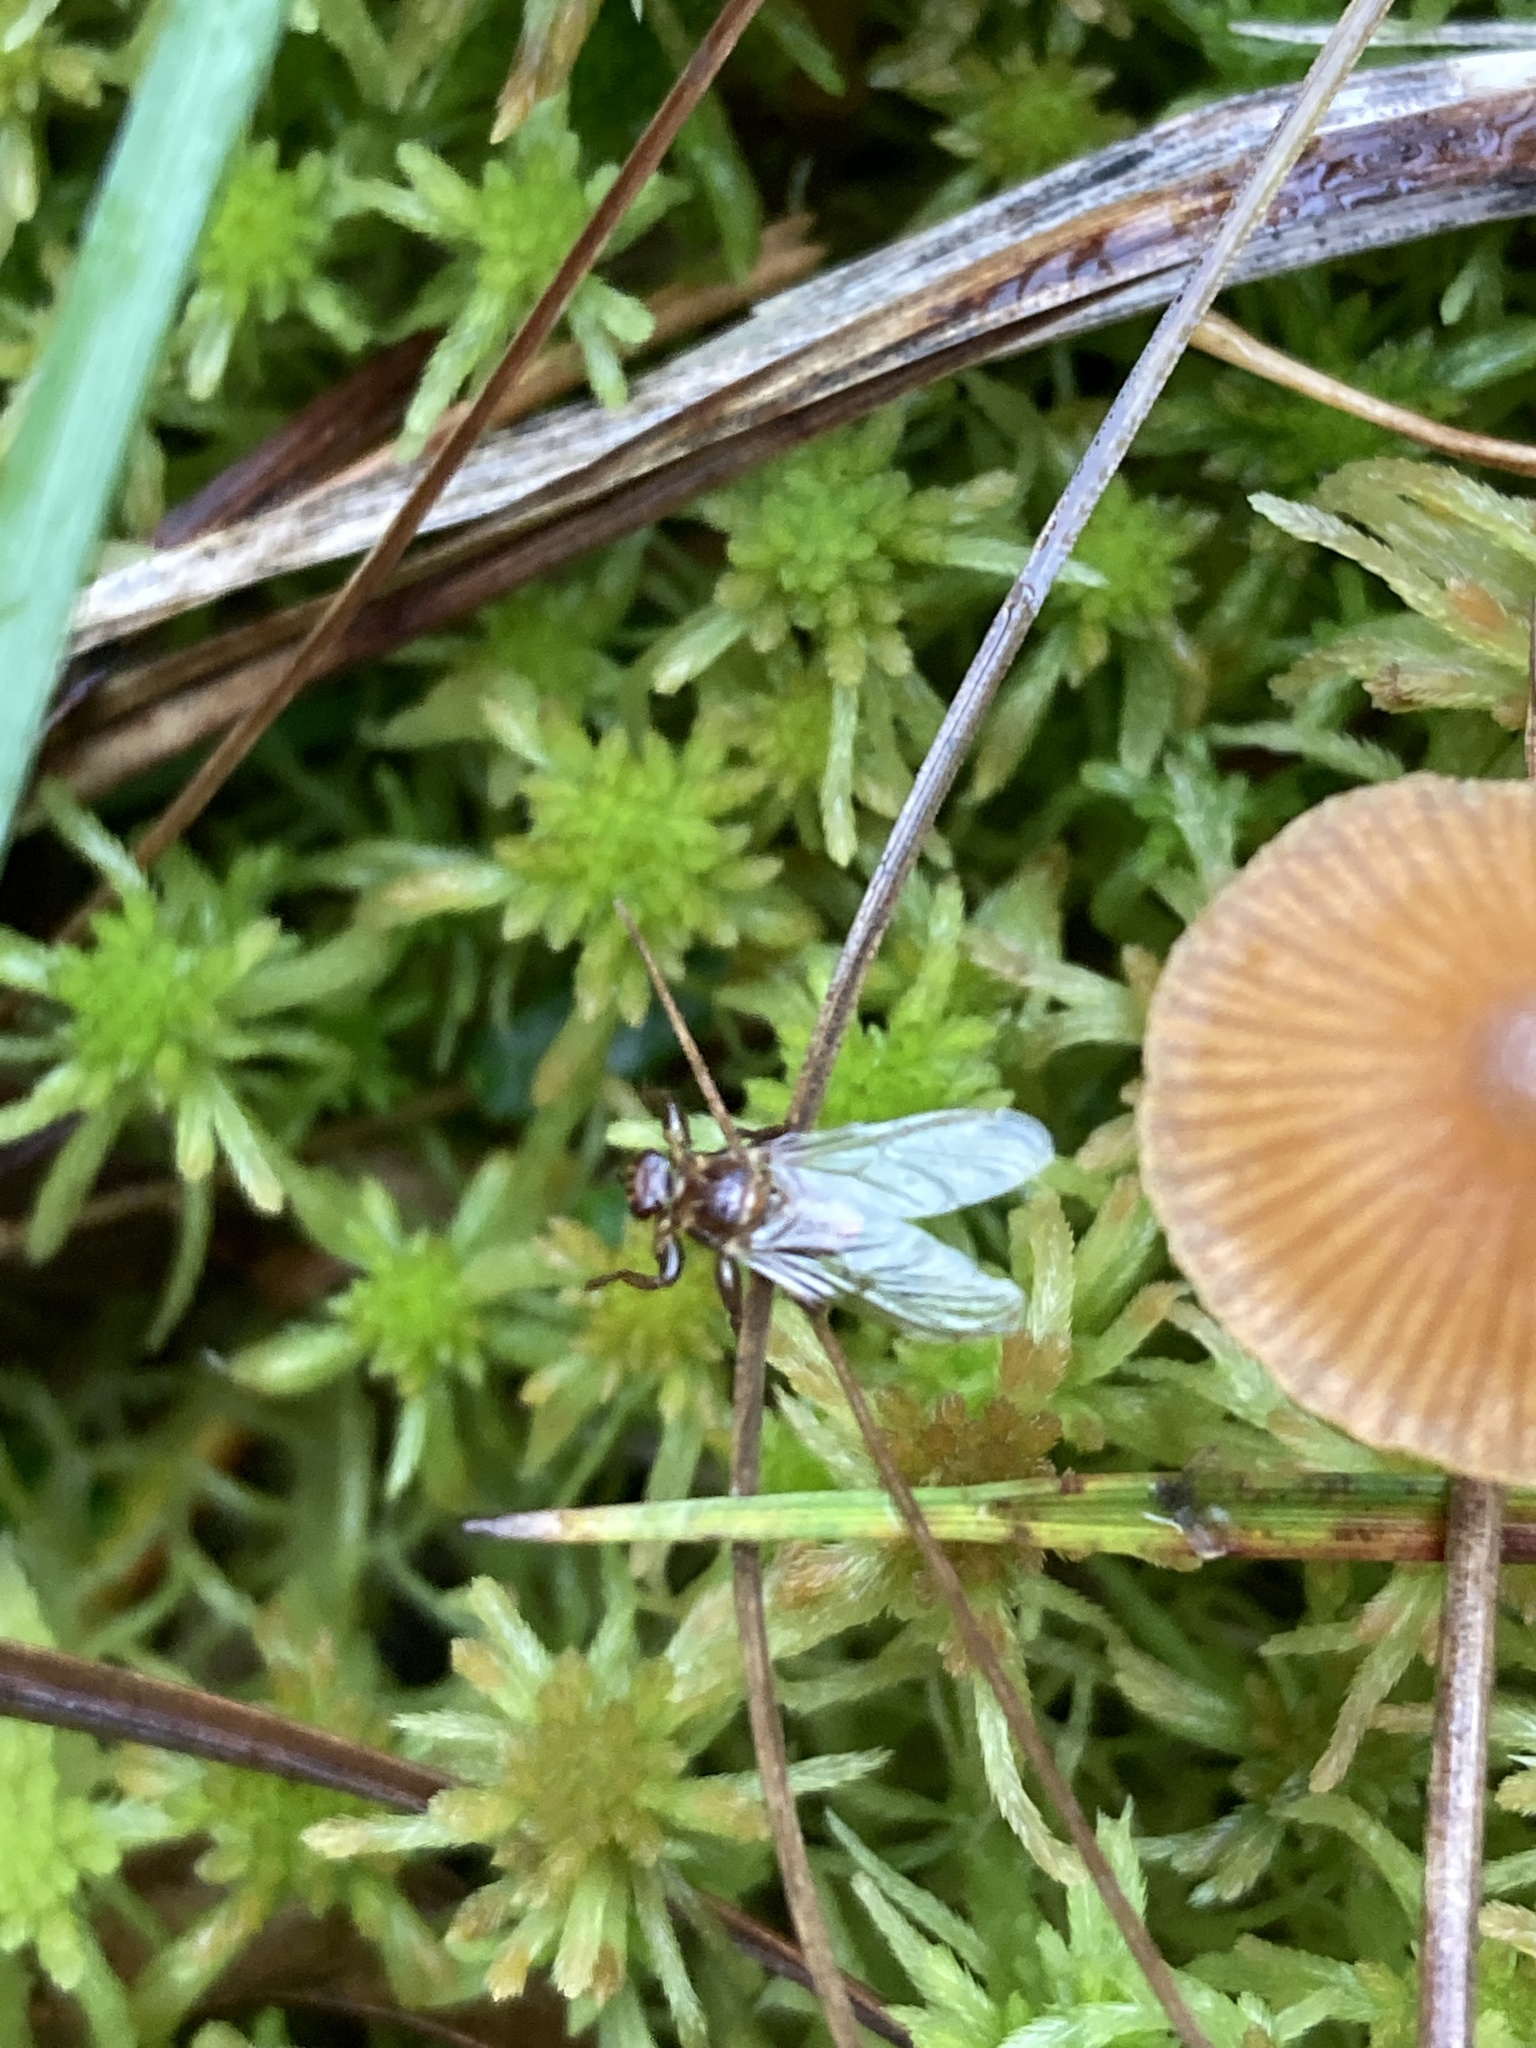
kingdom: Animalia
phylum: Arthropoda
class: Insecta
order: Diptera
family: Hippoboscidae
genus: Lipoptena
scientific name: Lipoptena cervi
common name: Deer ked
